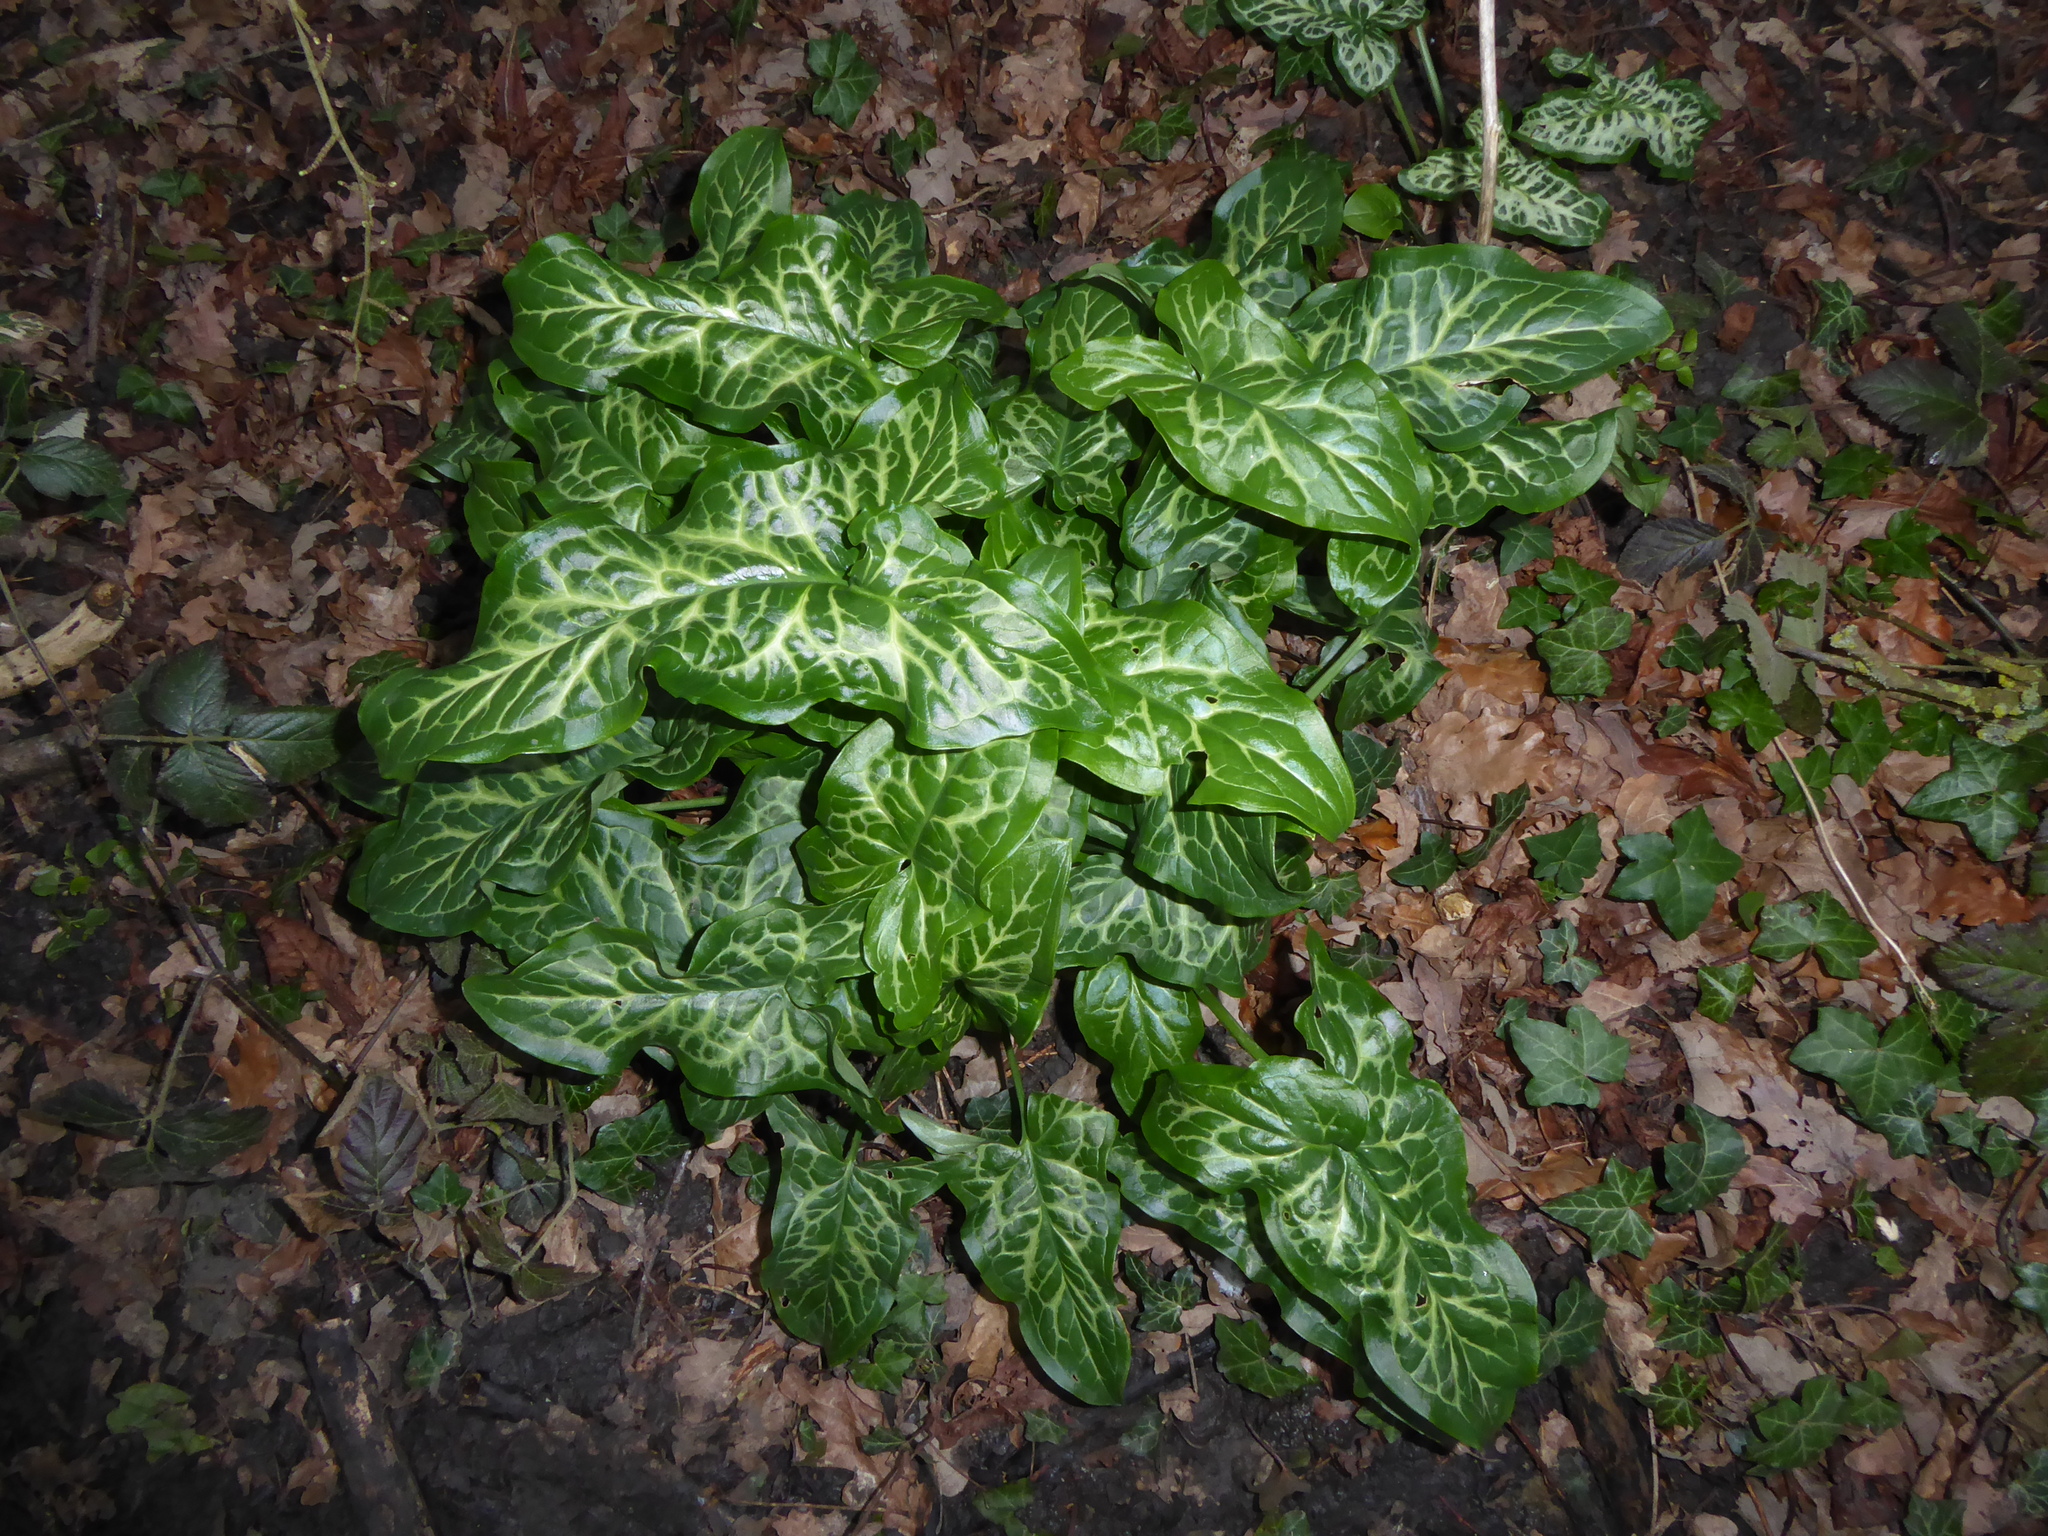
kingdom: Plantae
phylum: Tracheophyta
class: Liliopsida
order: Alismatales
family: Araceae
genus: Arum
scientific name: Arum italicum
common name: Italian lords-and-ladies
